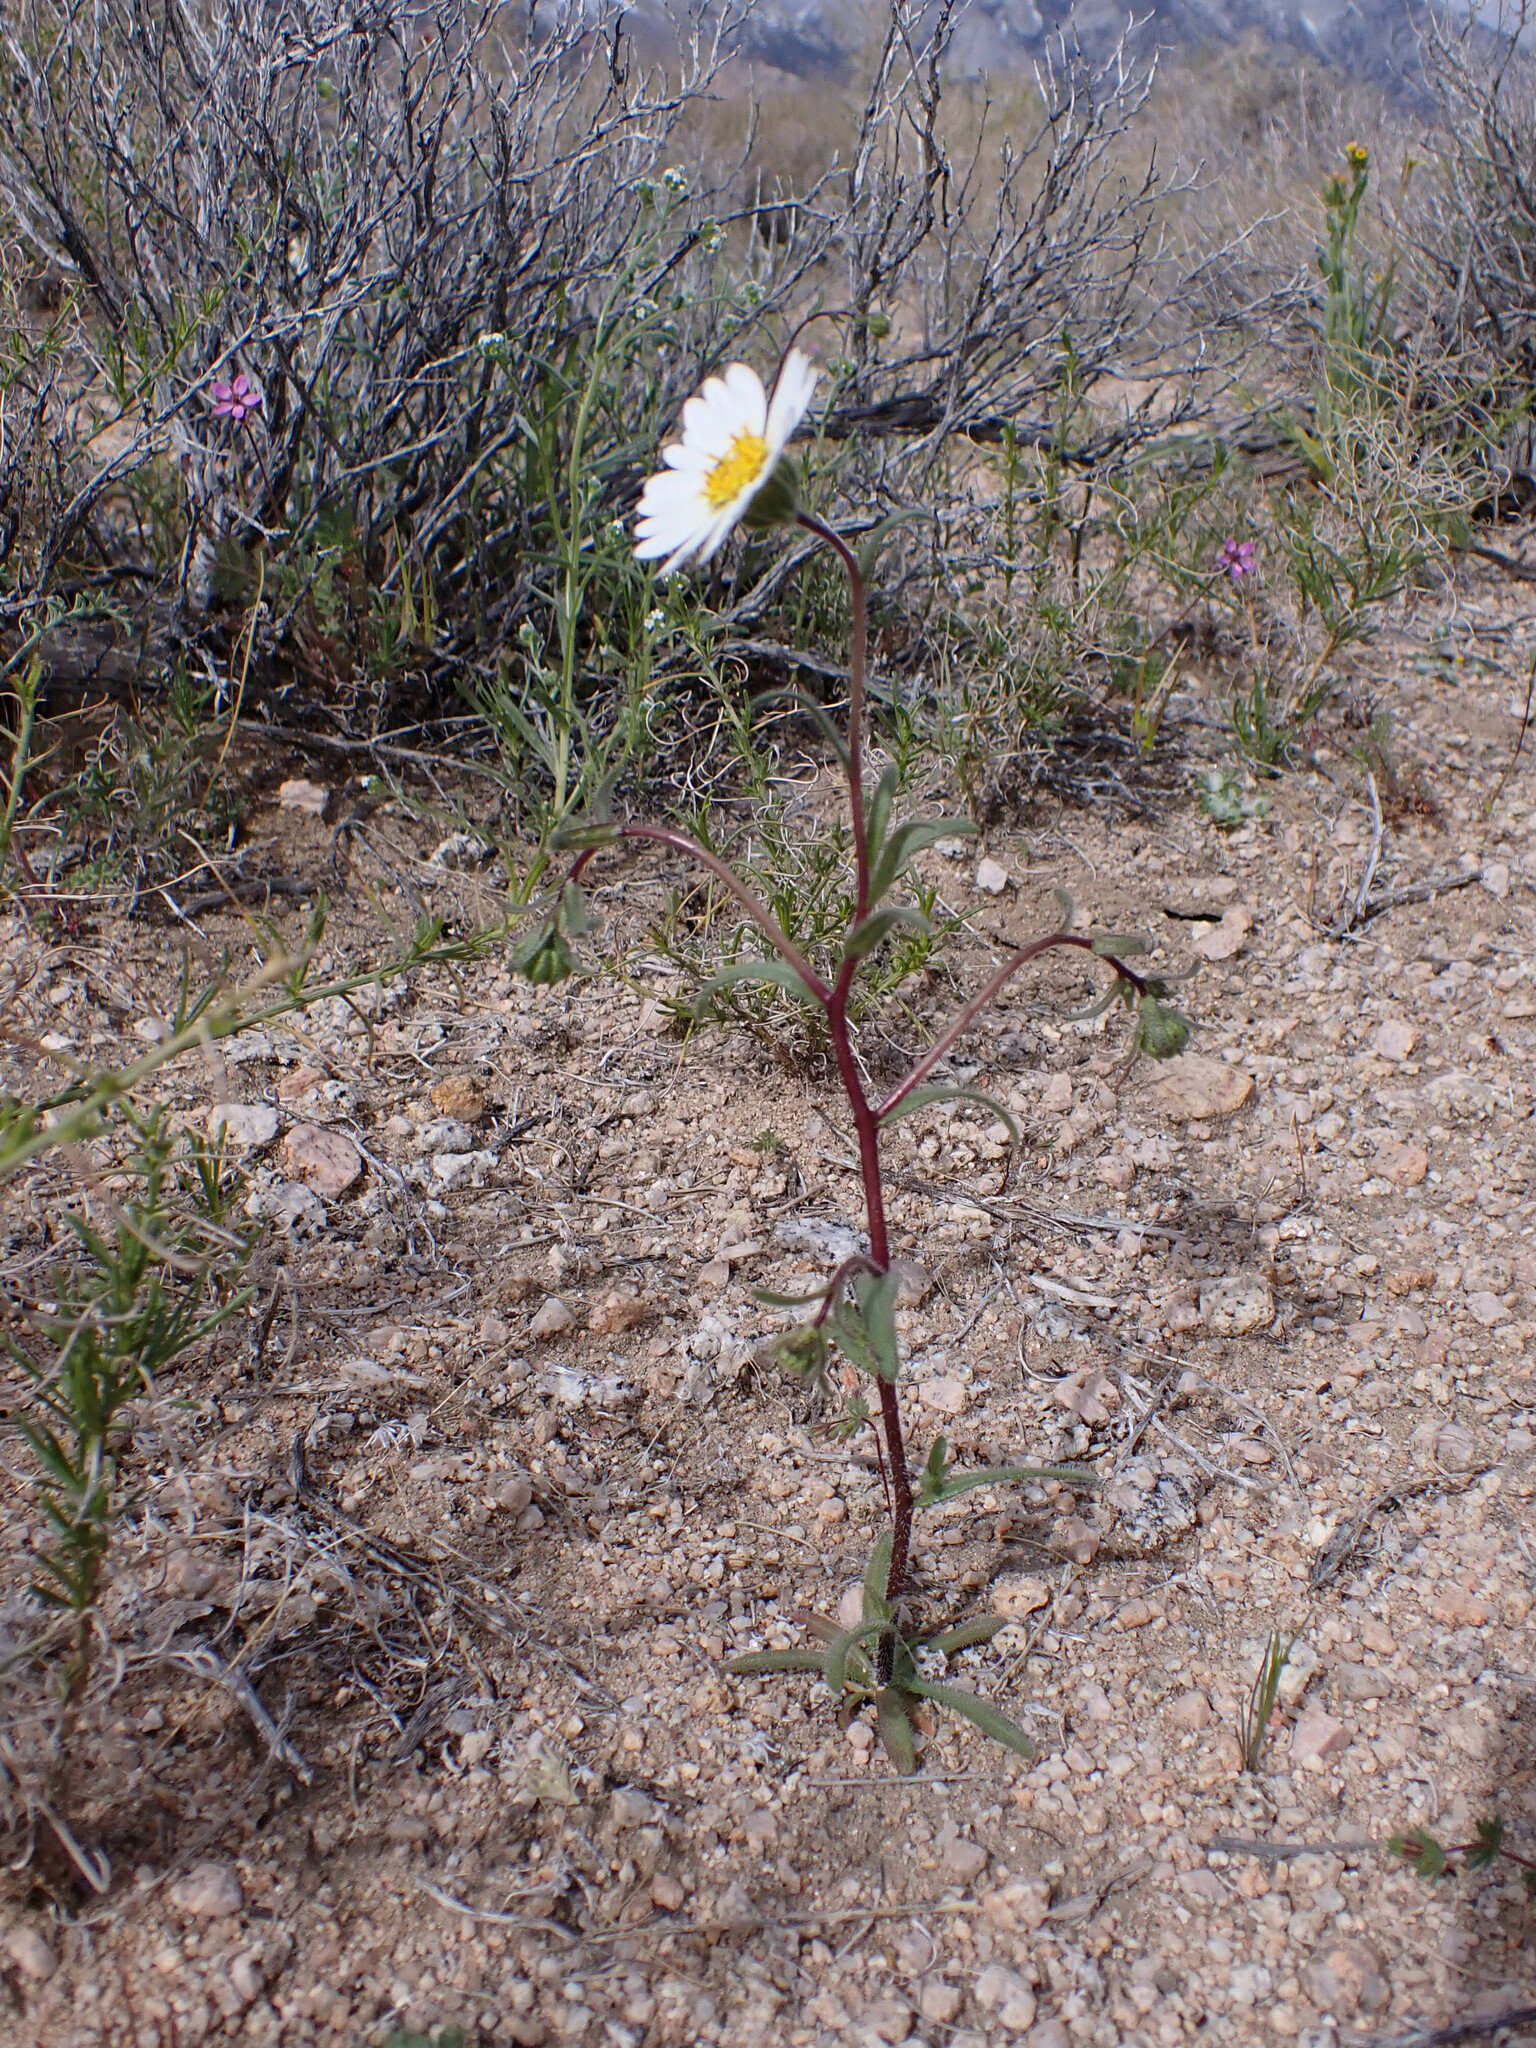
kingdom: Plantae
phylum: Tracheophyta
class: Magnoliopsida
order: Asterales
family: Asteraceae
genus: Layia
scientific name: Layia glandulosa
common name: White layia
